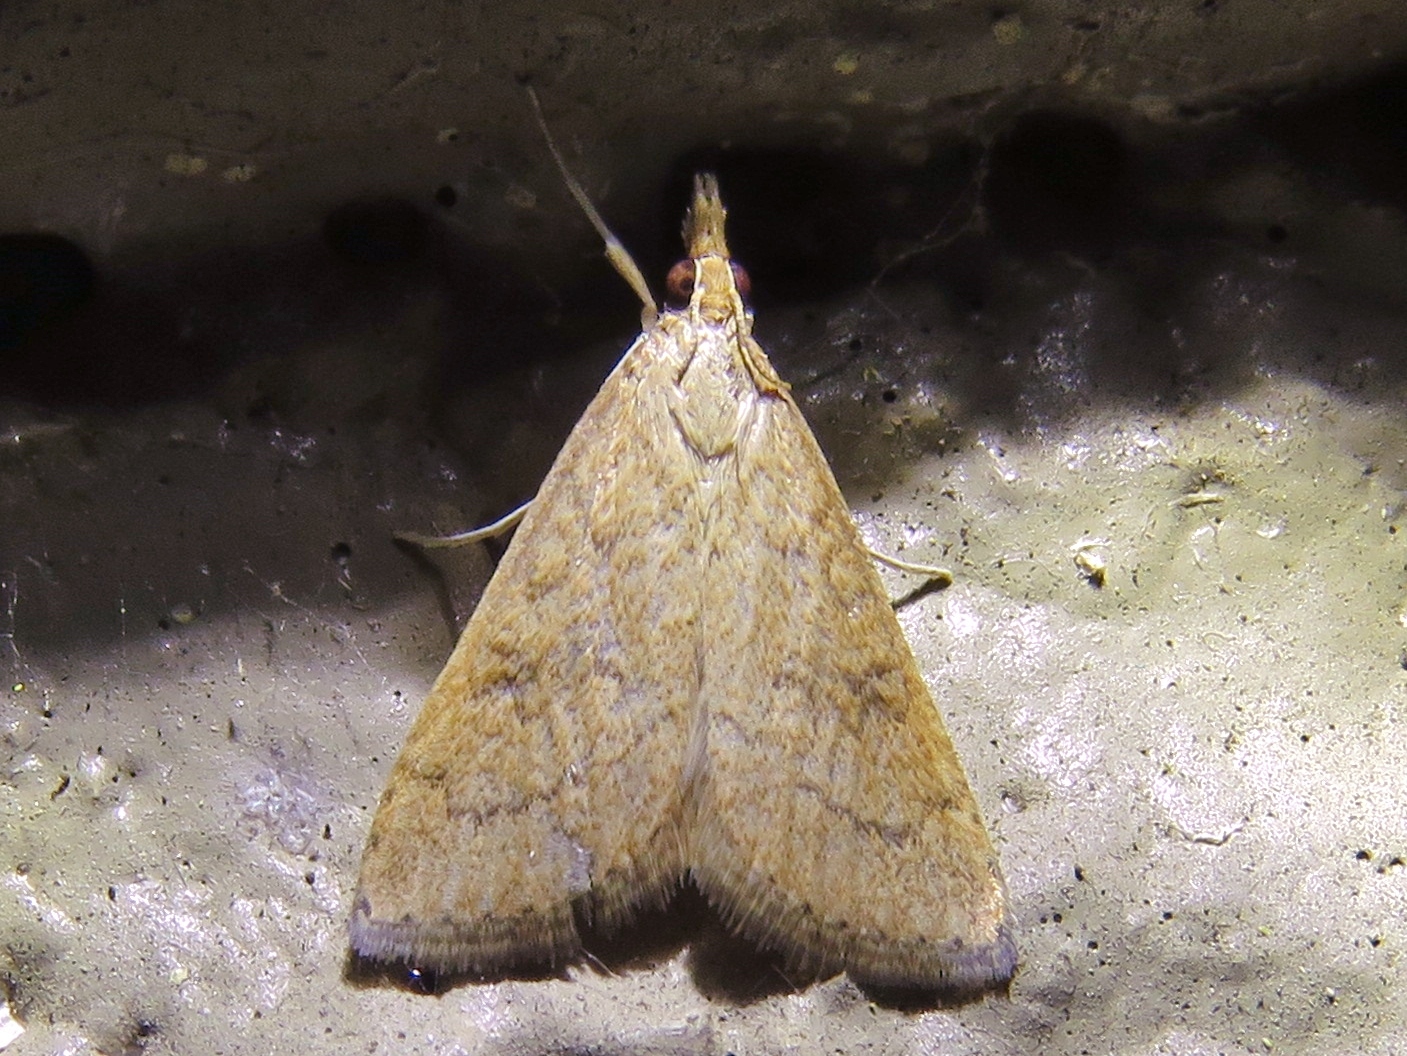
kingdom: Animalia
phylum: Arthropoda
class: Insecta
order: Lepidoptera
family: Crambidae
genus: Udea
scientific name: Udea rubigalis
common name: Celery leaftier moth
